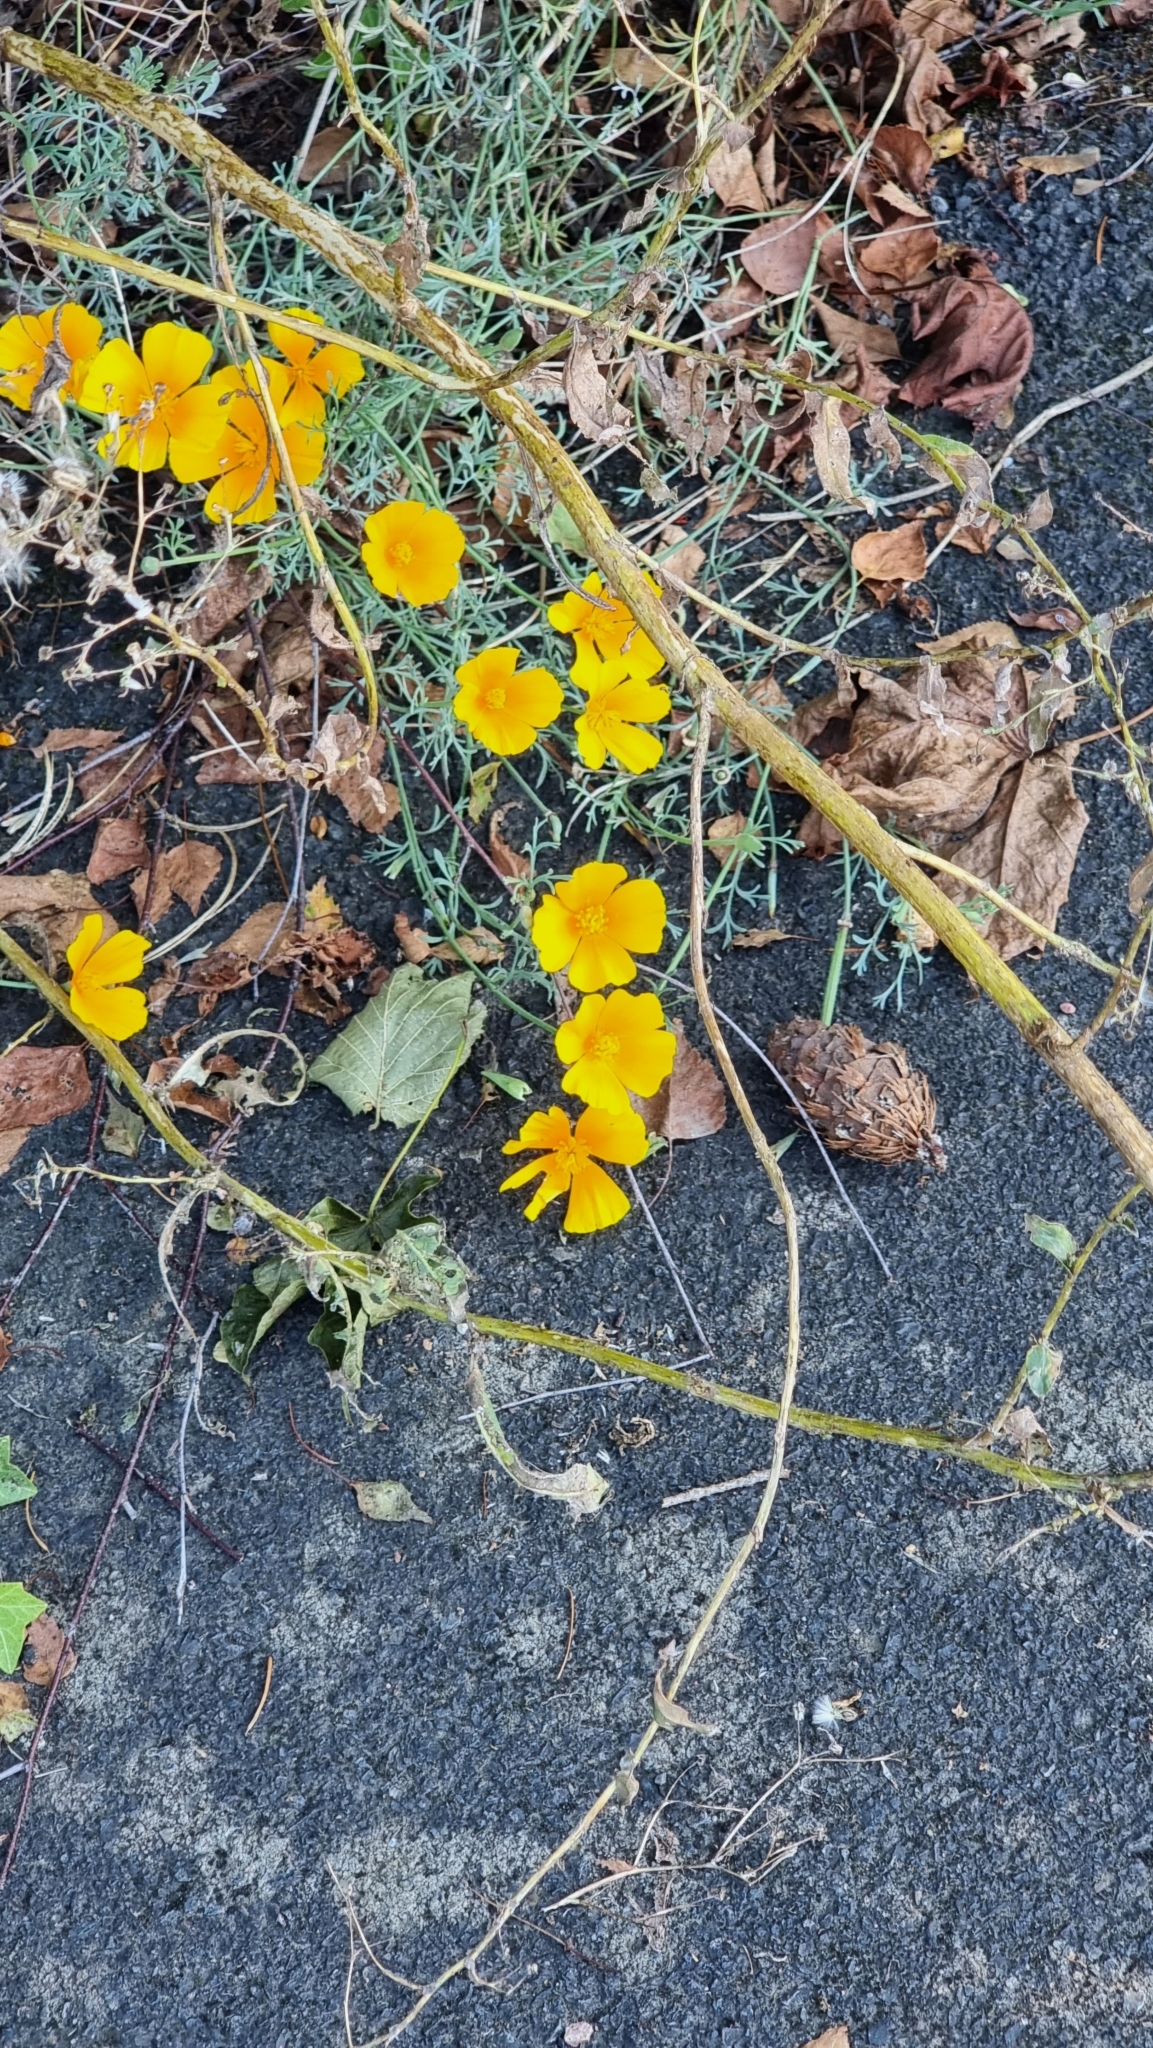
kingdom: Plantae
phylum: Tracheophyta
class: Magnoliopsida
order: Ranunculales
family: Papaveraceae
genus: Eschscholzia
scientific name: Eschscholzia californica
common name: California poppy
